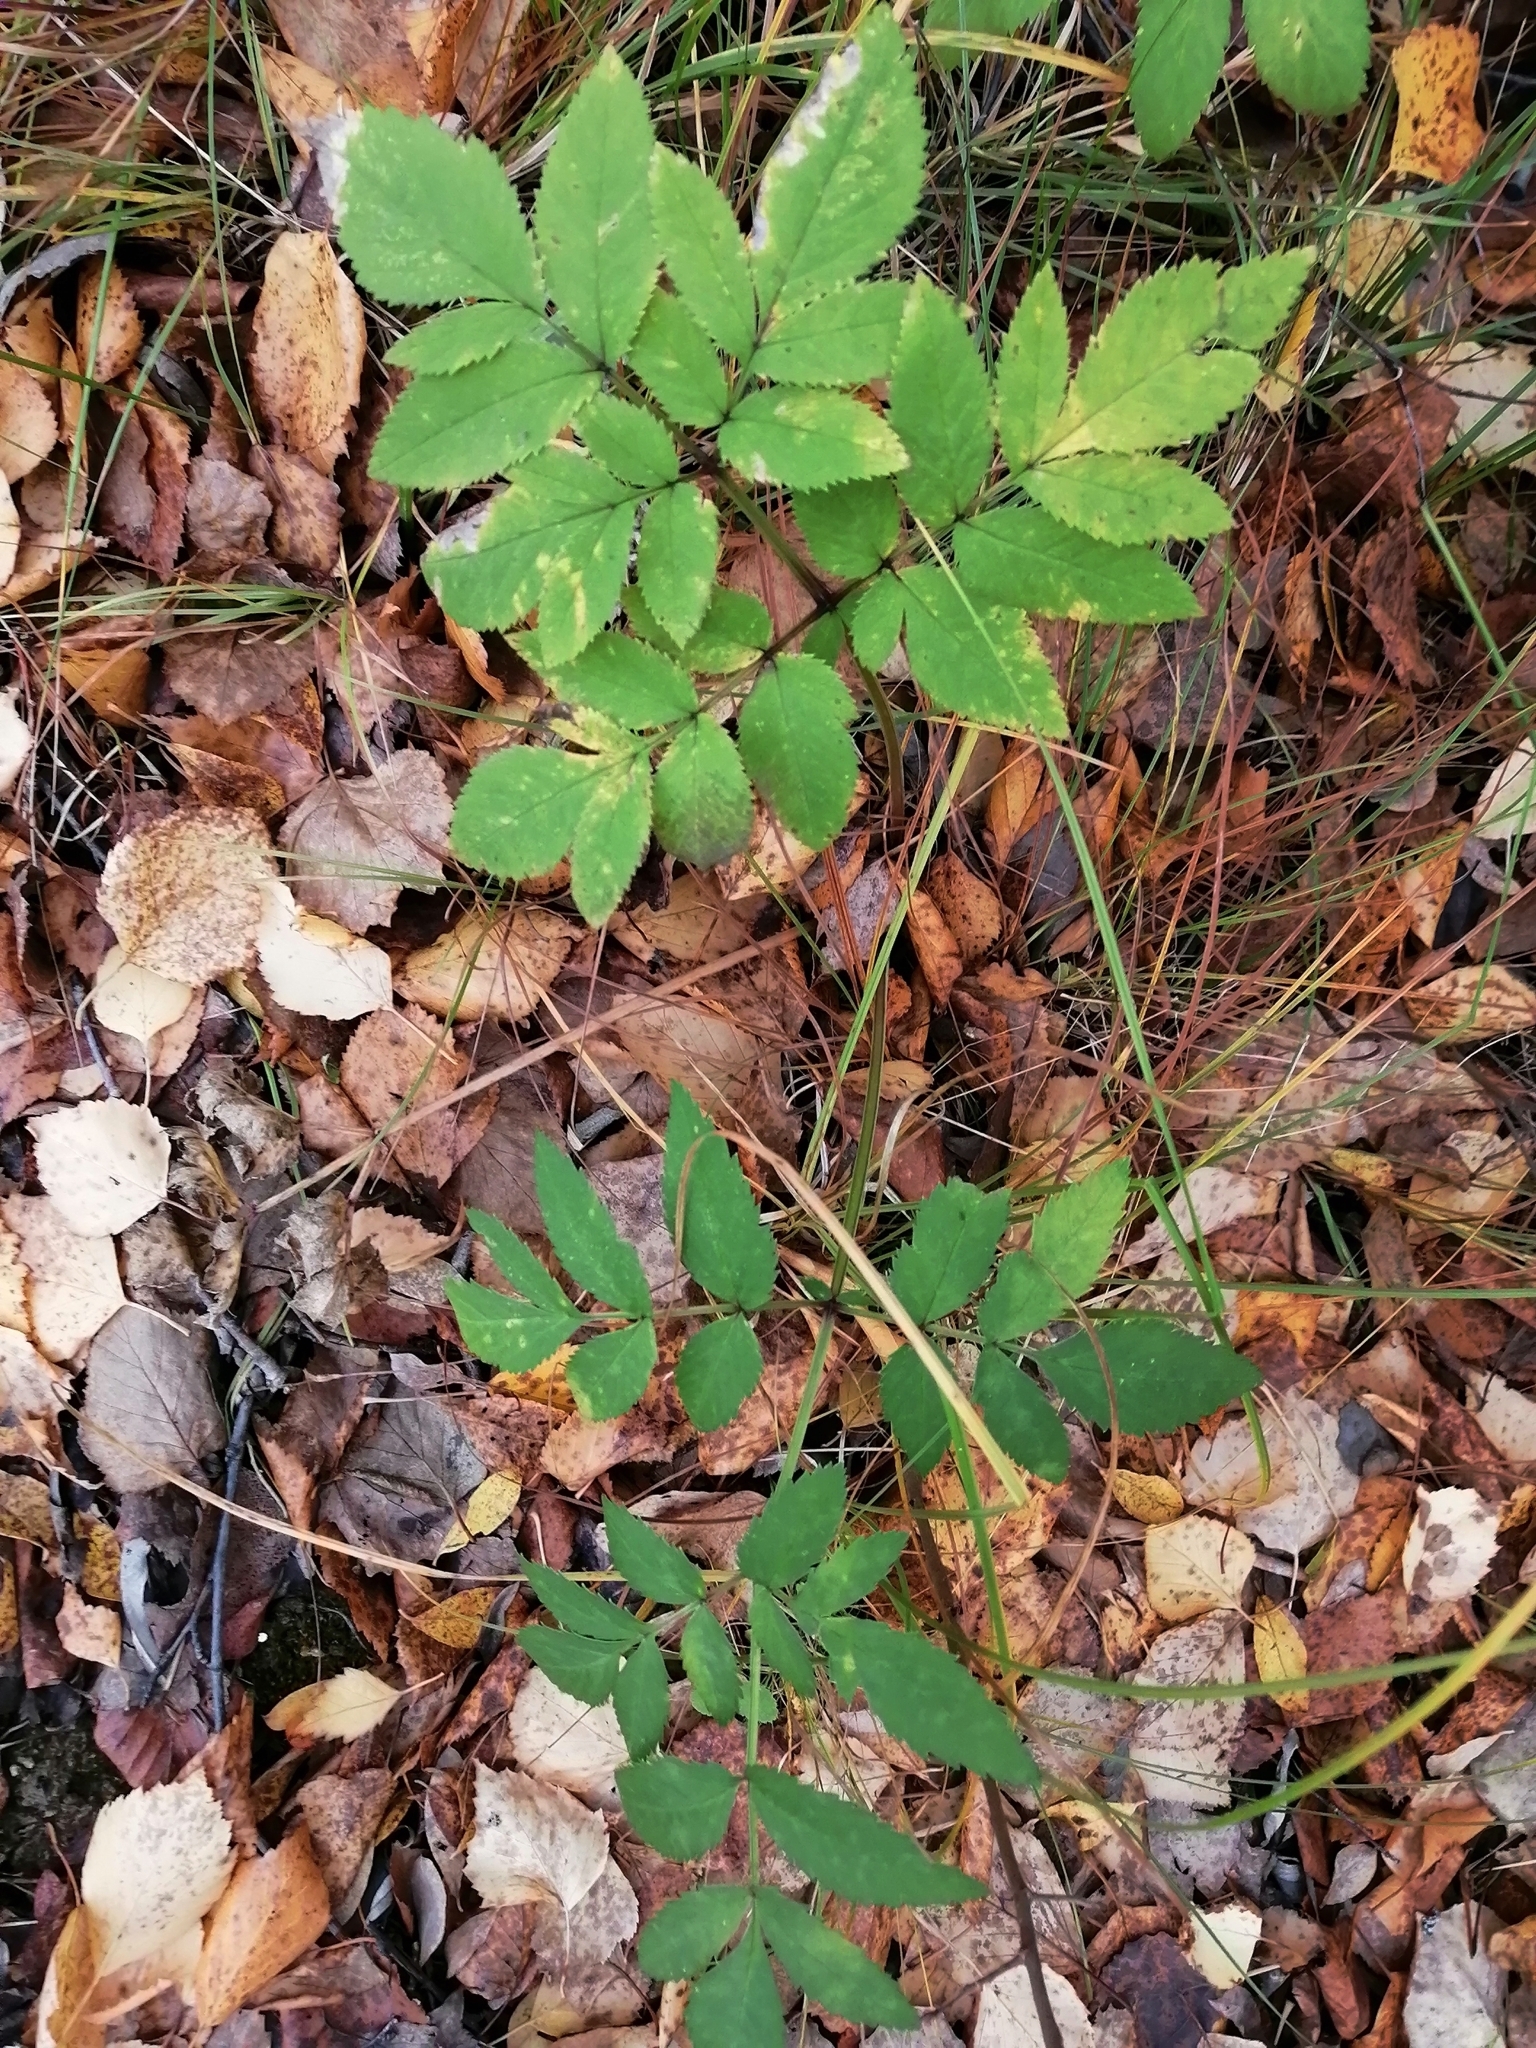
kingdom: Plantae
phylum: Tracheophyta
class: Magnoliopsida
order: Apiales
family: Apiaceae
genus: Angelica
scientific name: Angelica sylvestris
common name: Wild angelica
